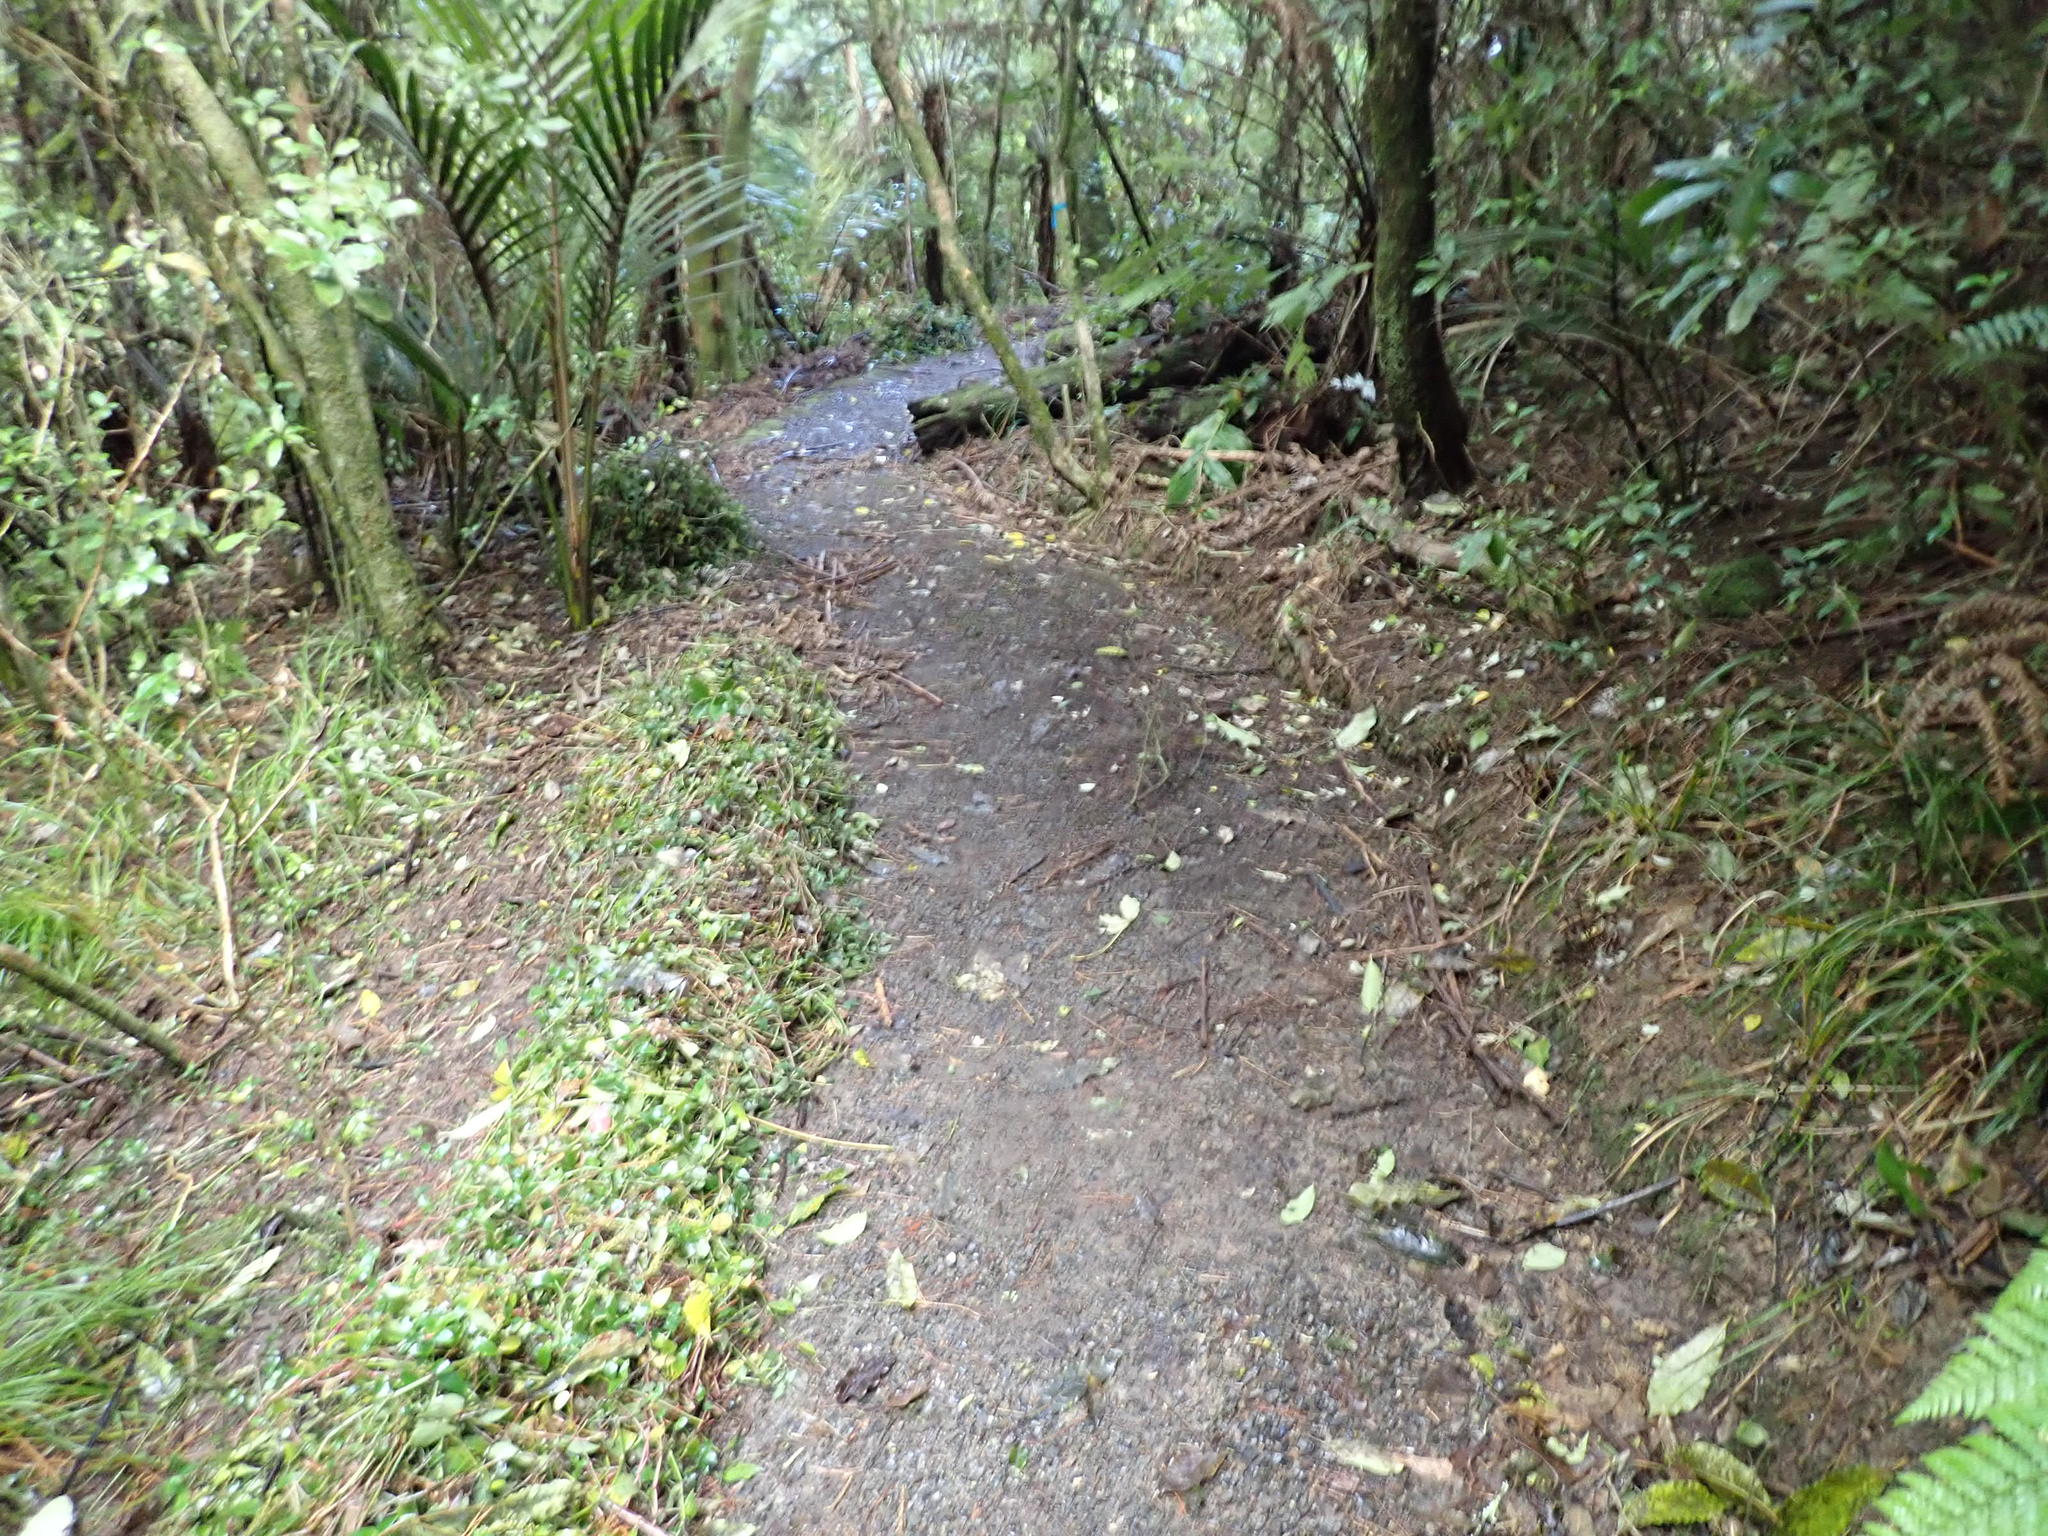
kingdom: Plantae
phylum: Tracheophyta
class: Liliopsida
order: Commelinales
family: Commelinaceae
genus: Tradescantia
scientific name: Tradescantia fluminensis
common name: Wandering-jew
